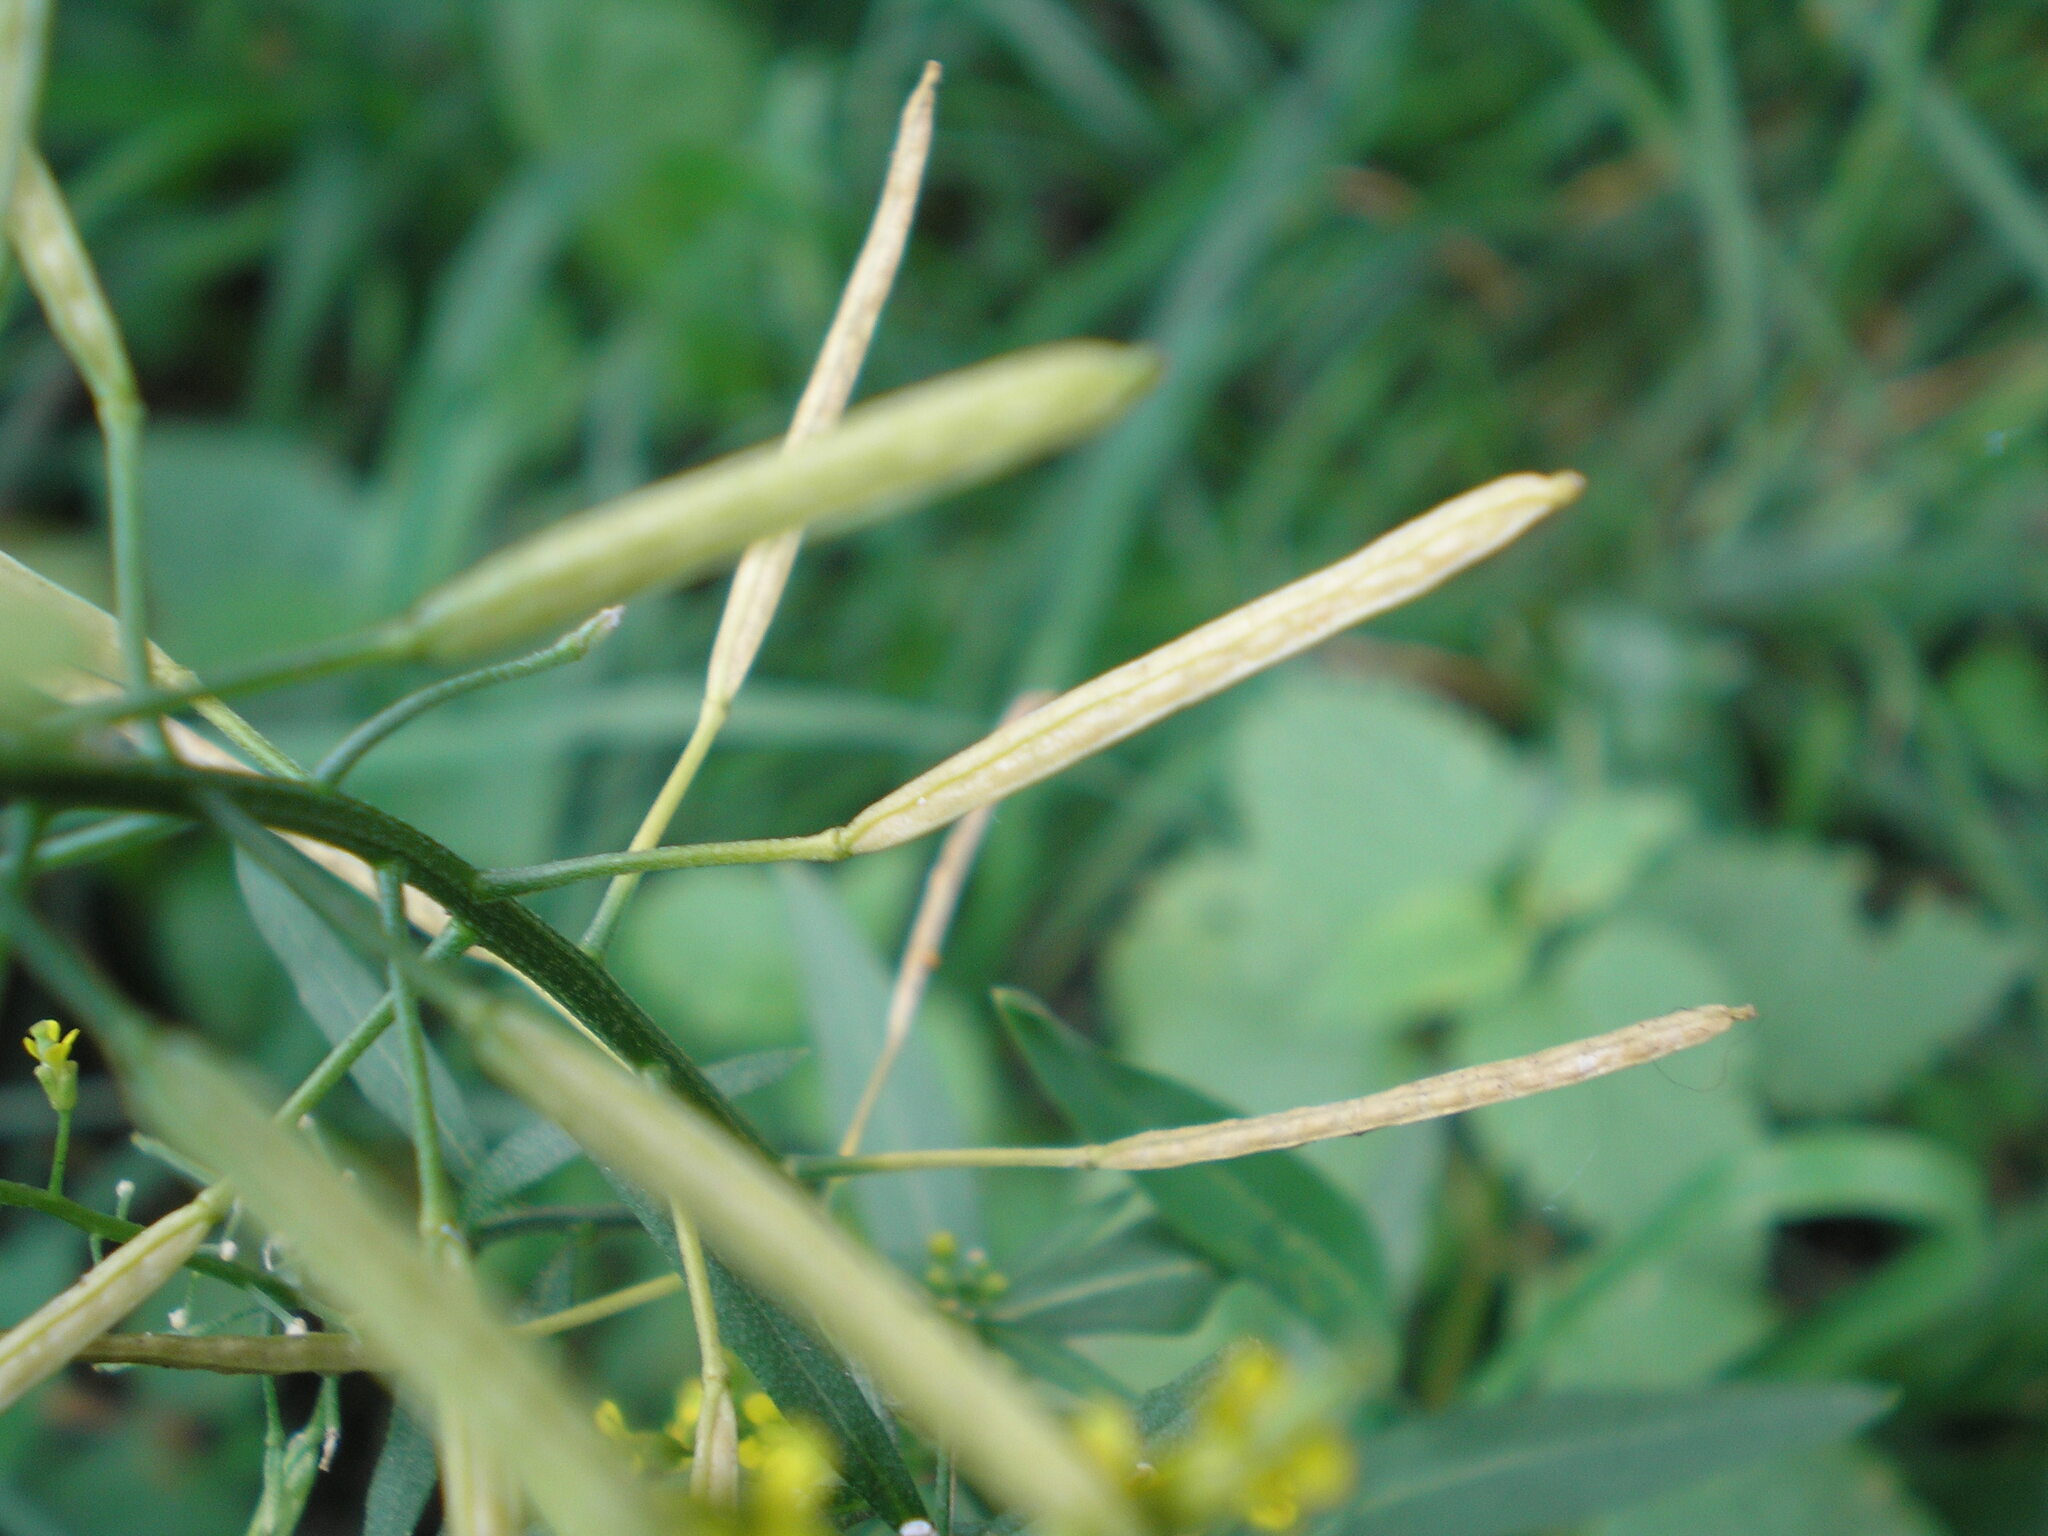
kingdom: Plantae
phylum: Tracheophyta
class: Magnoliopsida
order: Brassicales
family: Brassicaceae
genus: Erysimum
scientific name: Erysimum cheiranthoides
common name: Treacle mustard
